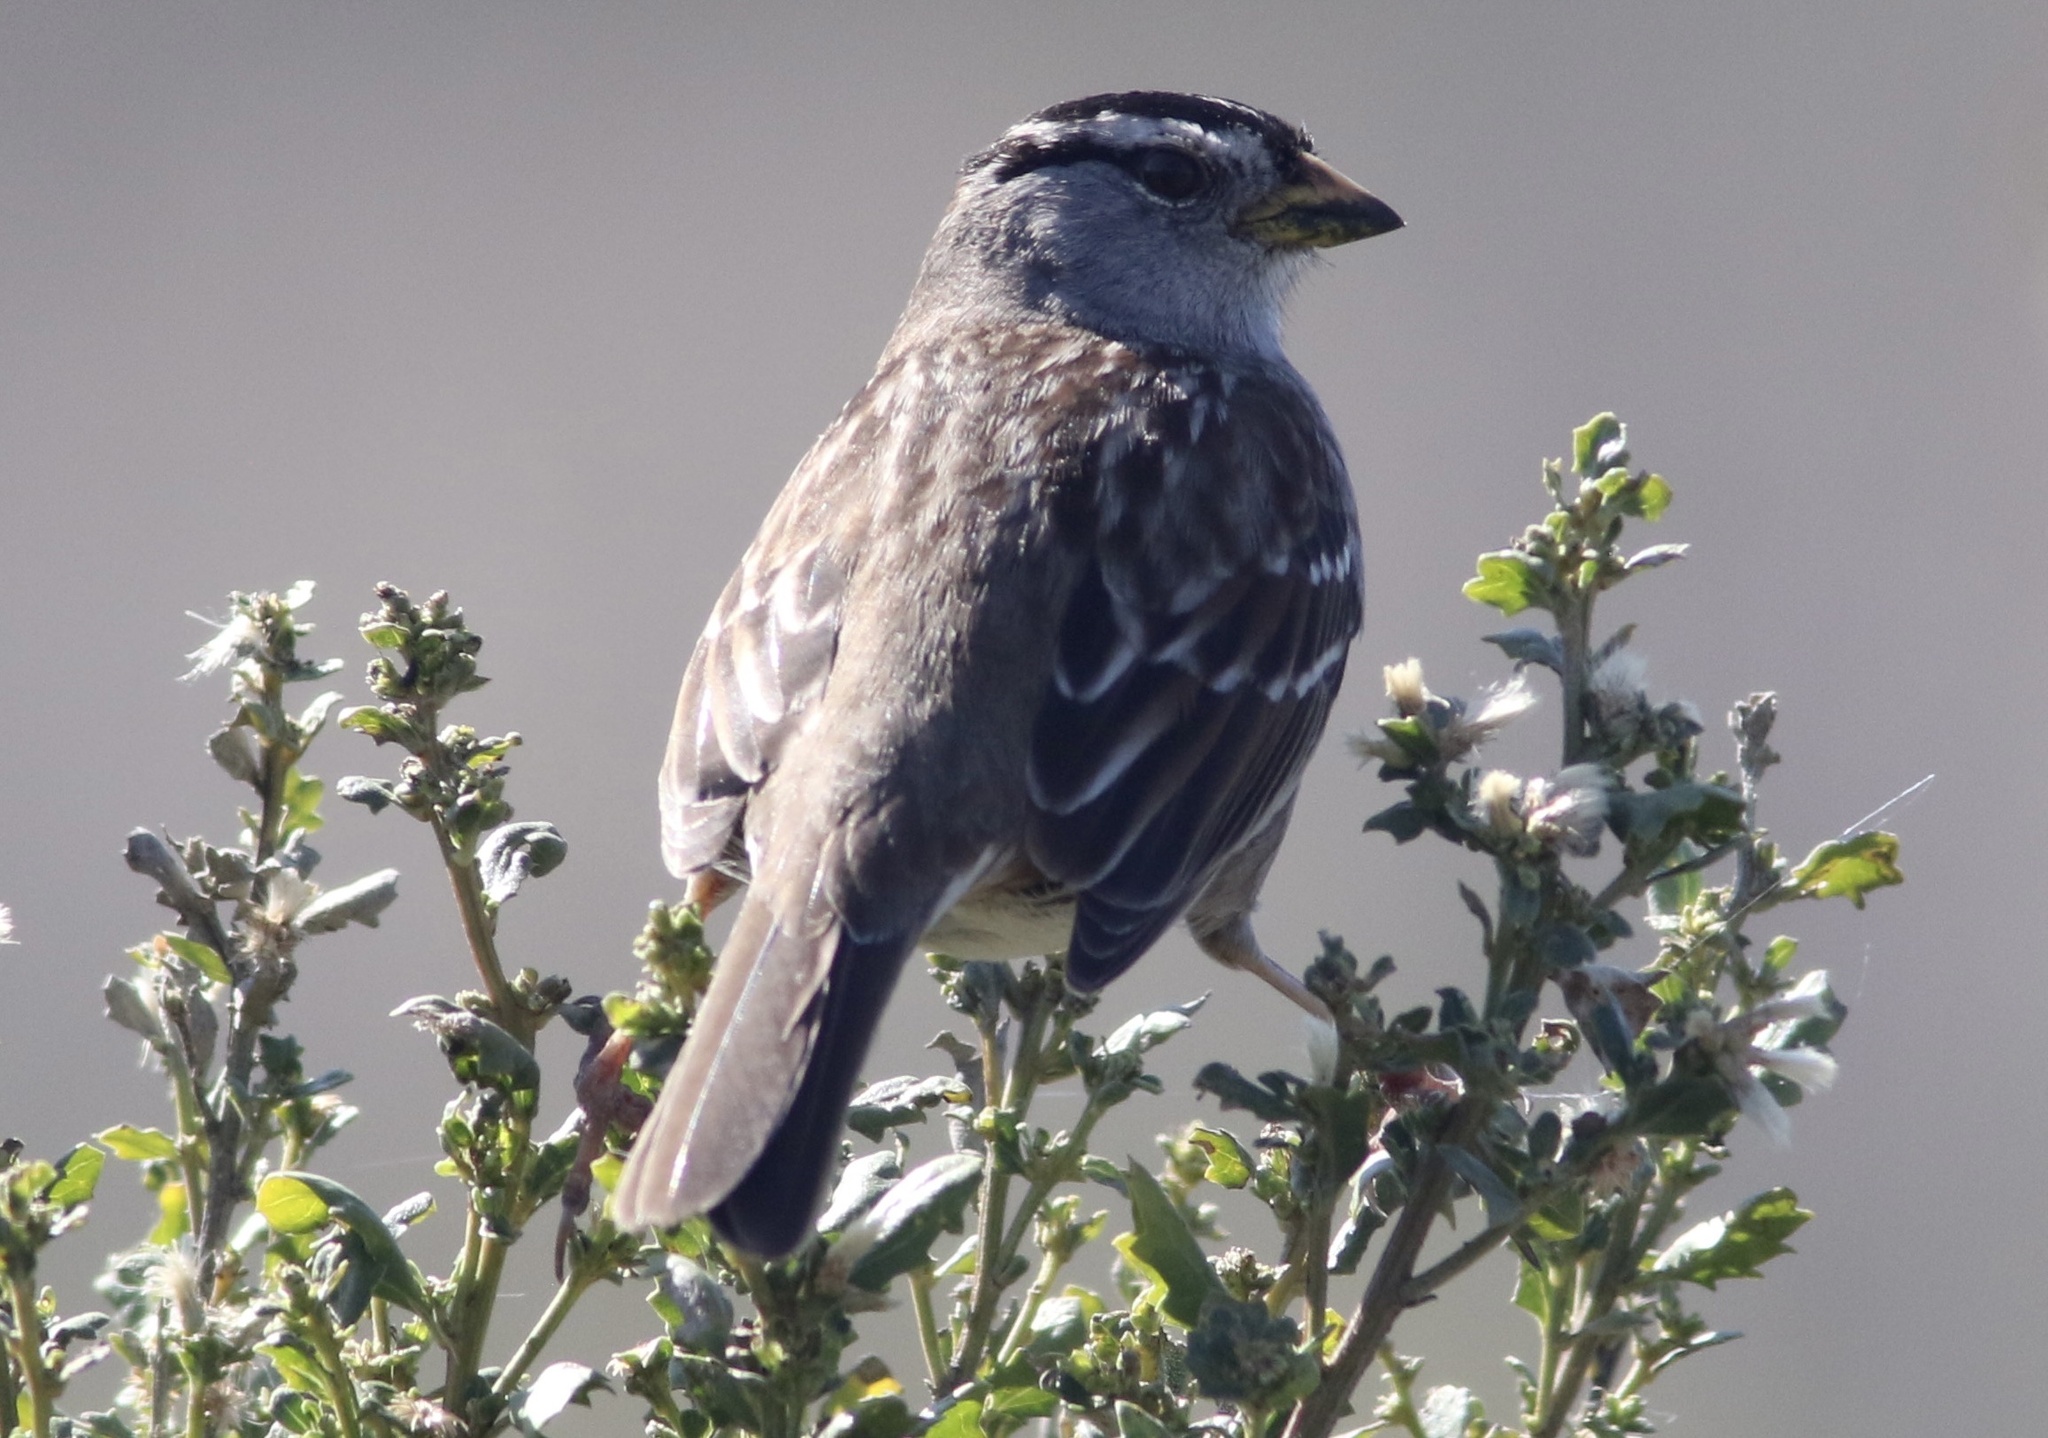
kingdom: Animalia
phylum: Chordata
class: Aves
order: Passeriformes
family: Passerellidae
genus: Zonotrichia
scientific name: Zonotrichia leucophrys
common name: White-crowned sparrow
